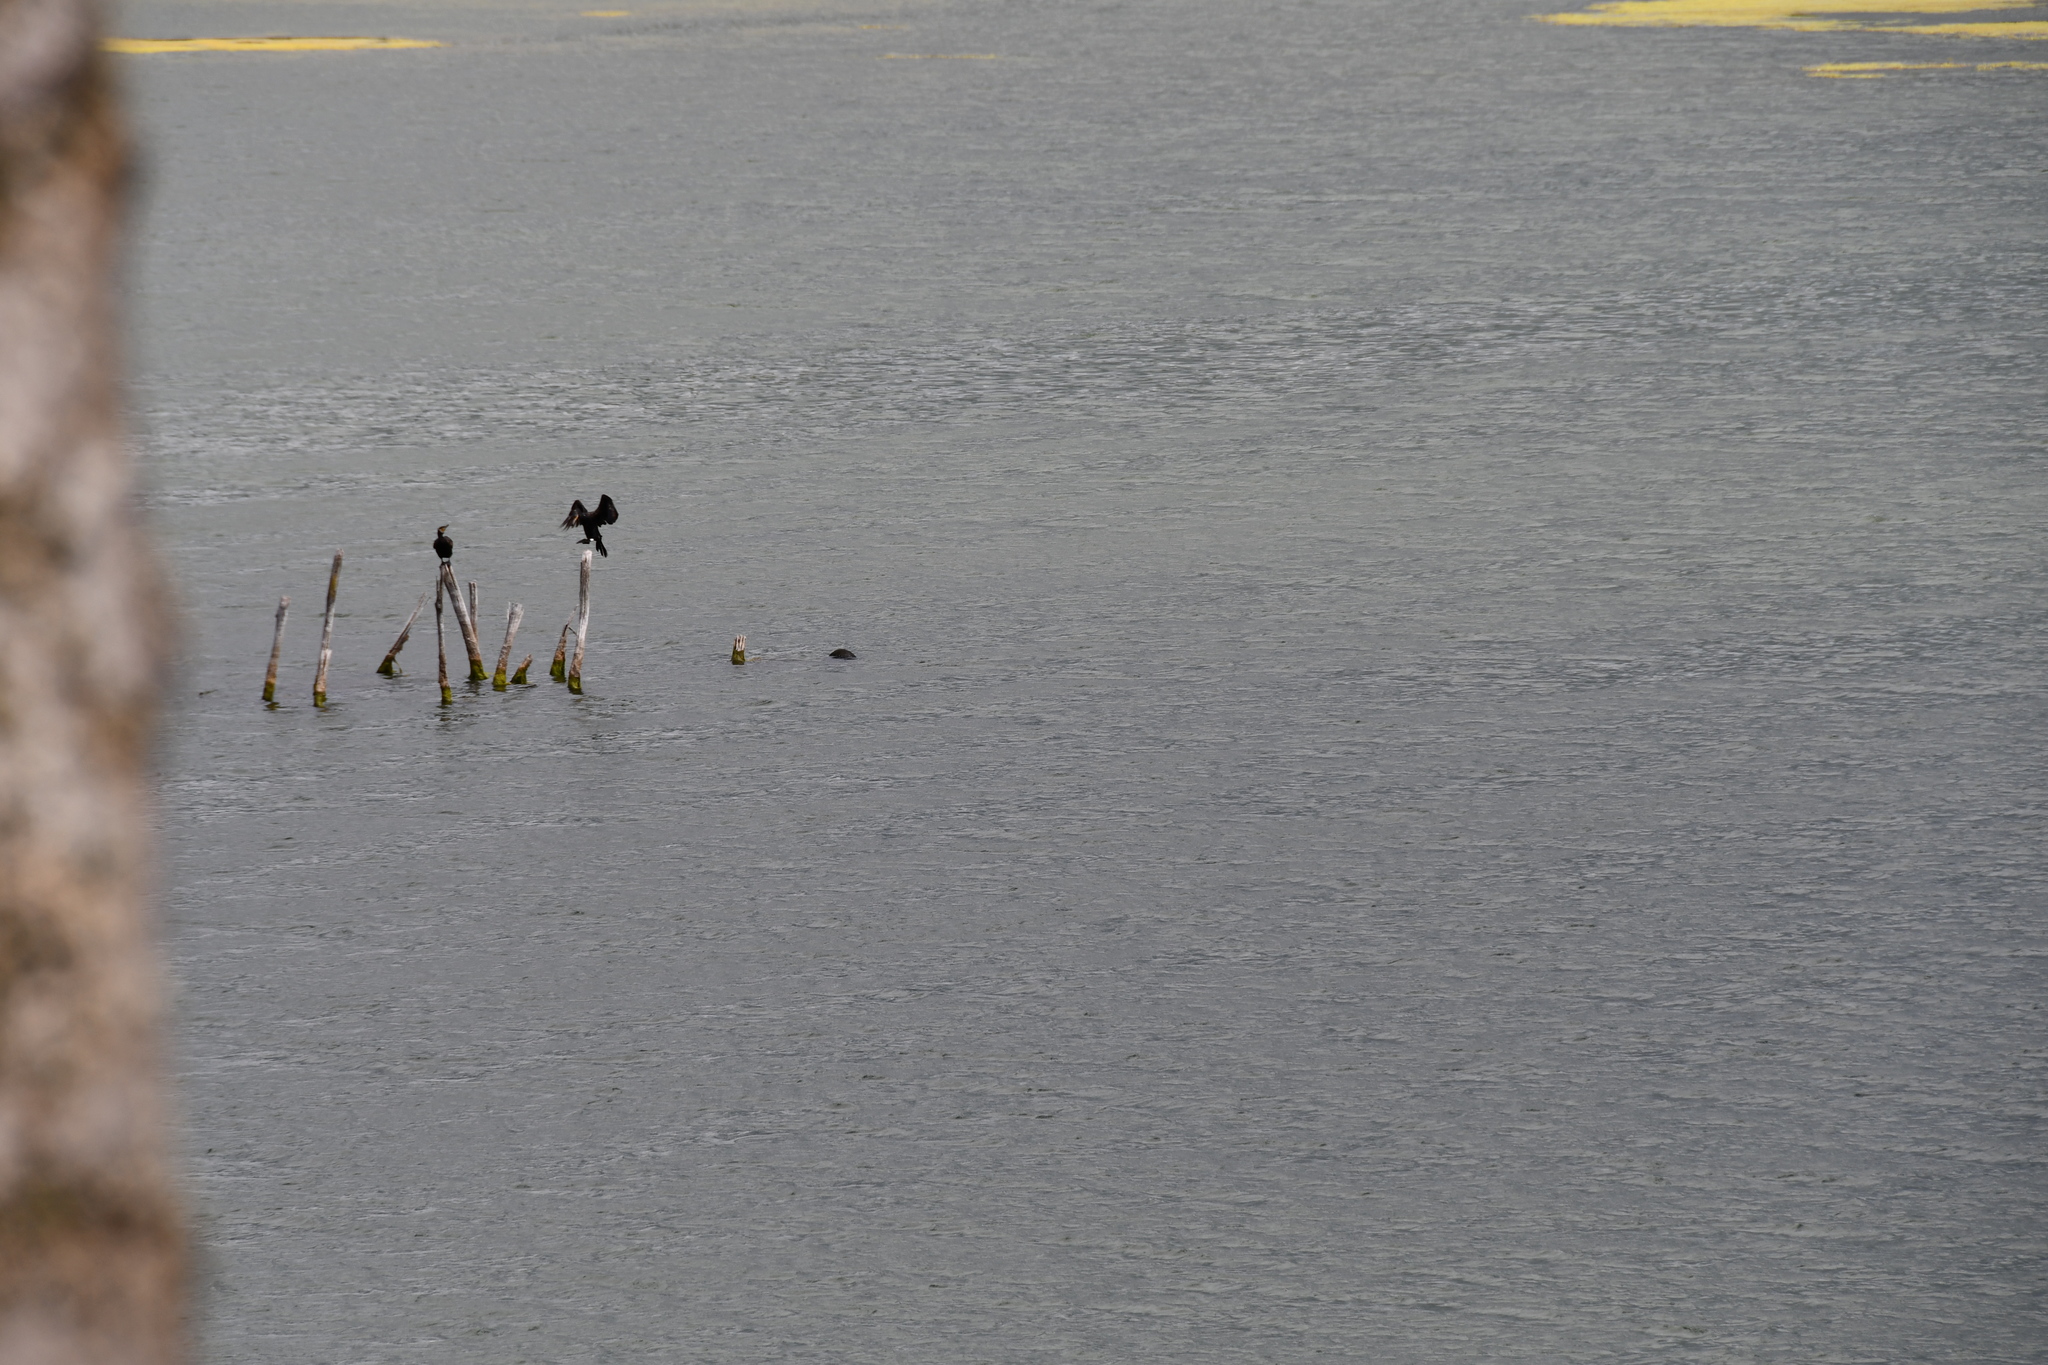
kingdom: Animalia
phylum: Chordata
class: Aves
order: Suliformes
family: Phalacrocoracidae
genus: Phalacrocorax
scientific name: Phalacrocorax carbo
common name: Great cormorant
